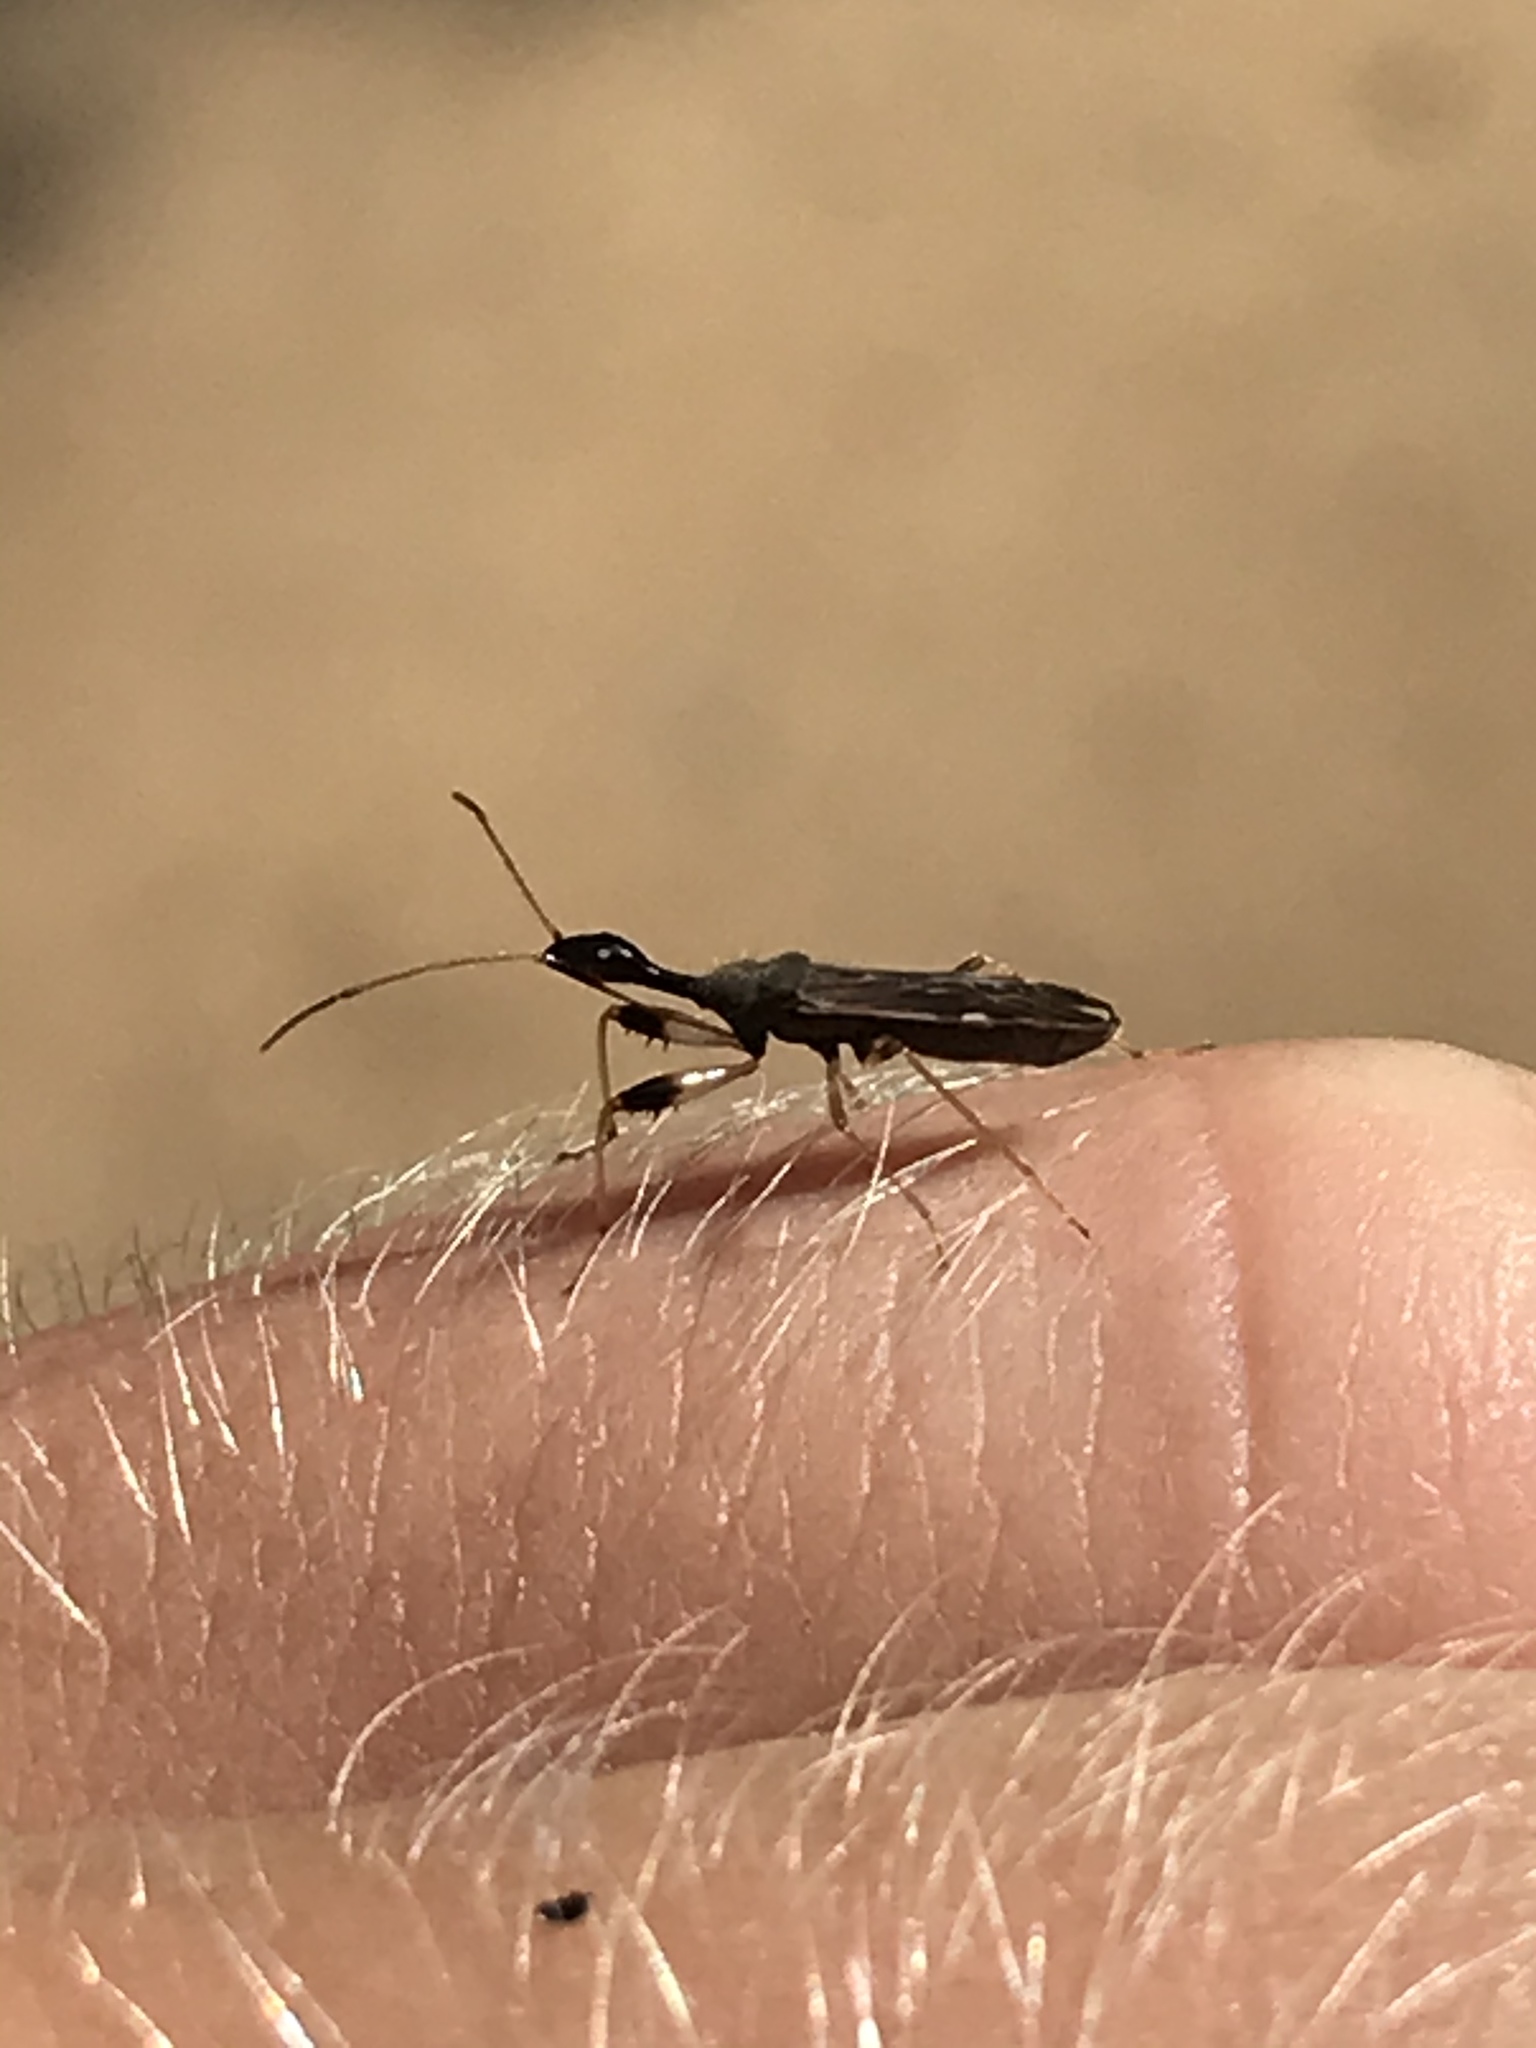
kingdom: Animalia
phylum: Arthropoda
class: Insecta
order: Hemiptera
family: Rhyparochromidae
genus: Myodocha
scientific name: Myodocha serripes
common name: Long-necked seed bug
